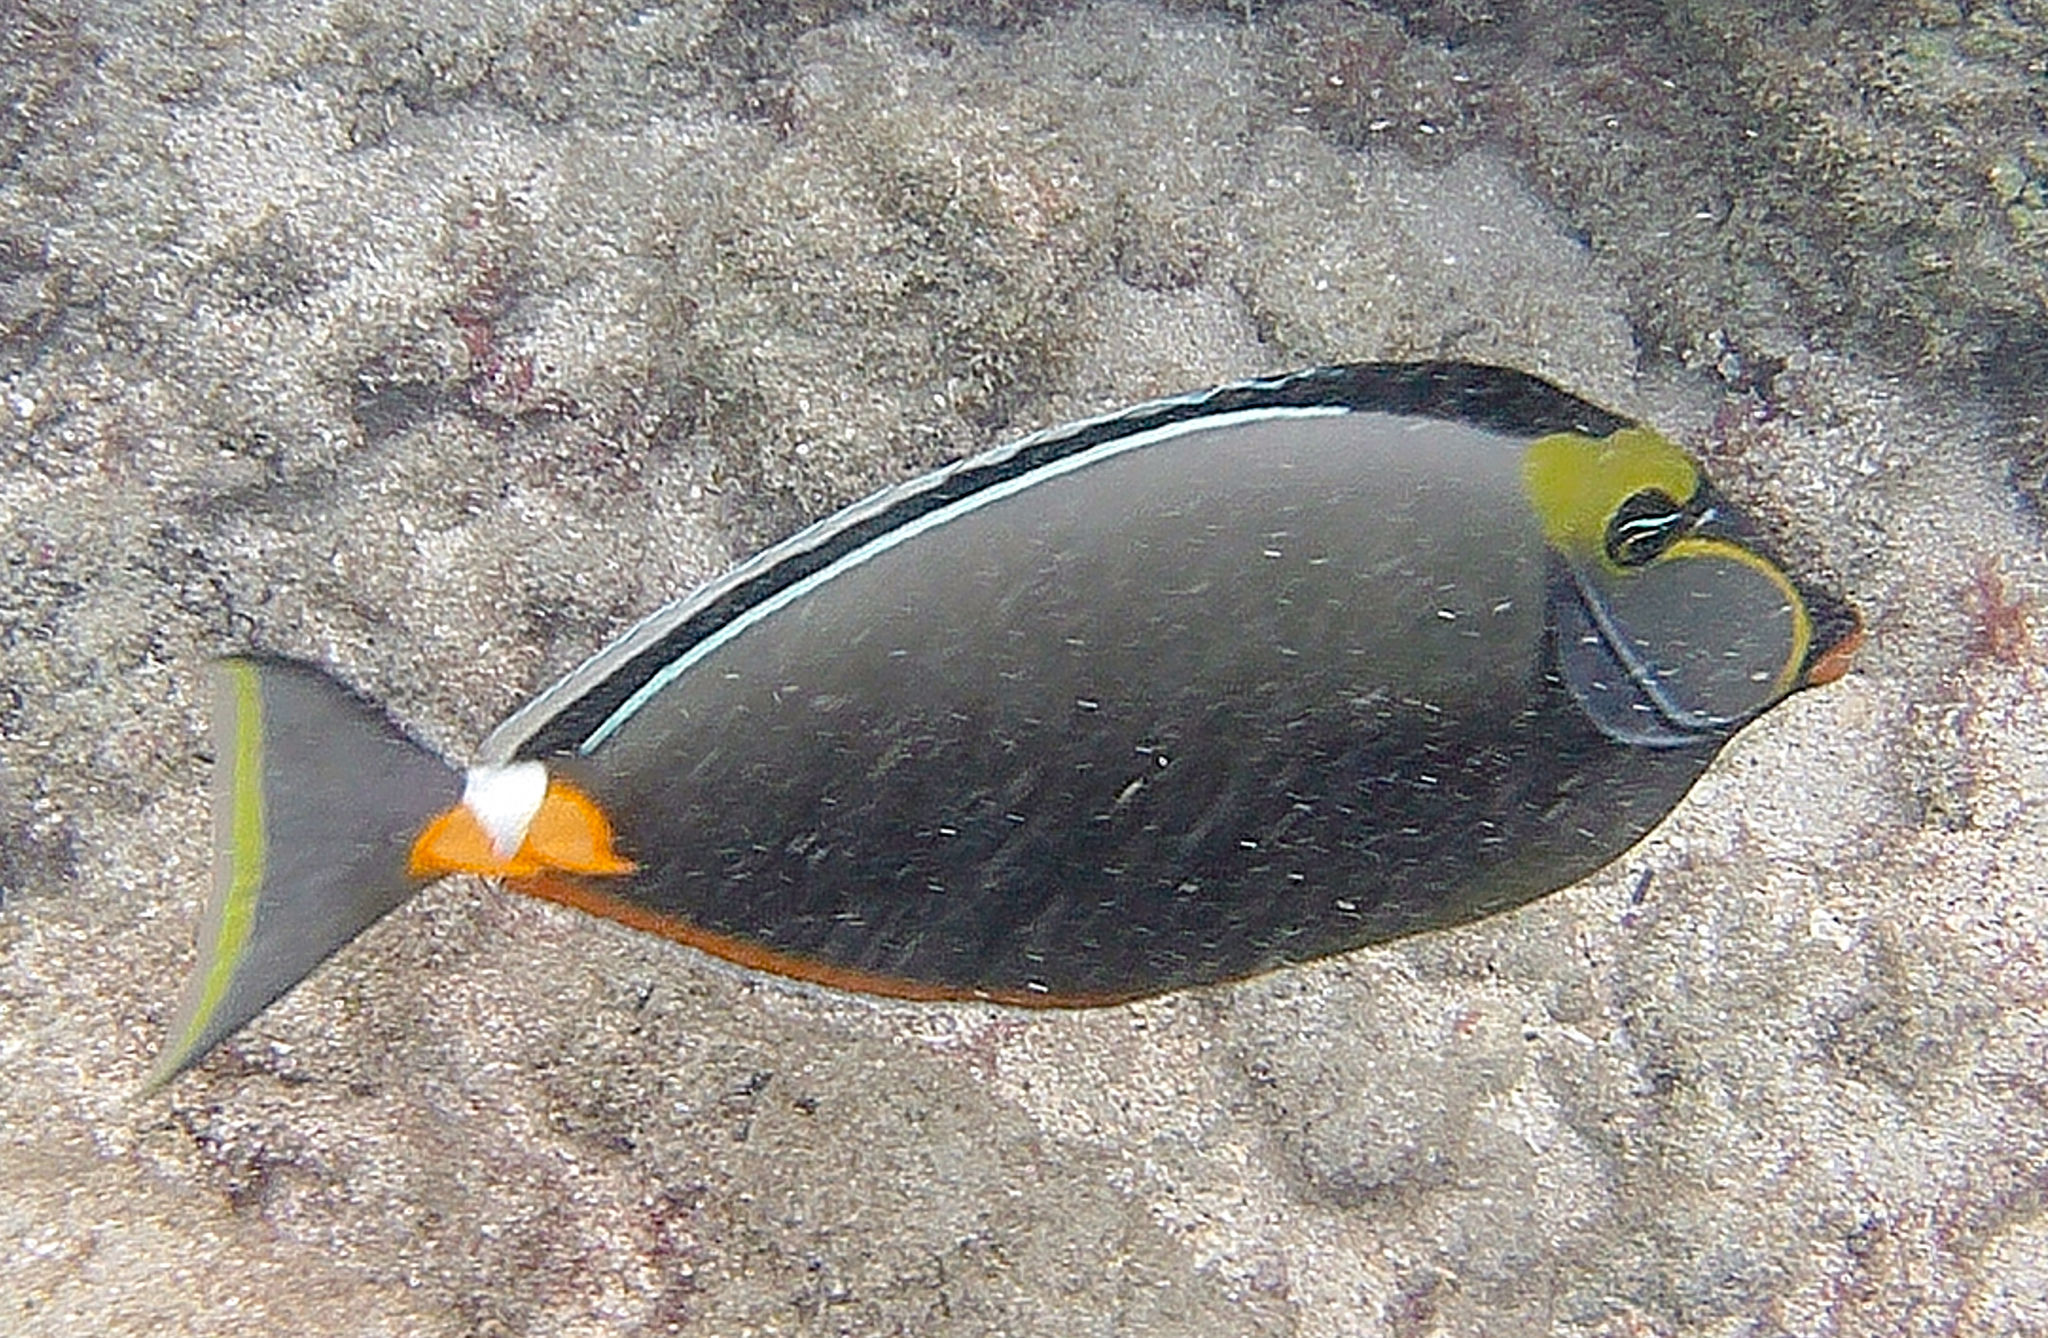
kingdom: Animalia
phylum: Chordata
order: Perciformes
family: Acanthuridae
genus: Naso
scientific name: Naso lituratus
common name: Orangespine unicornfish
